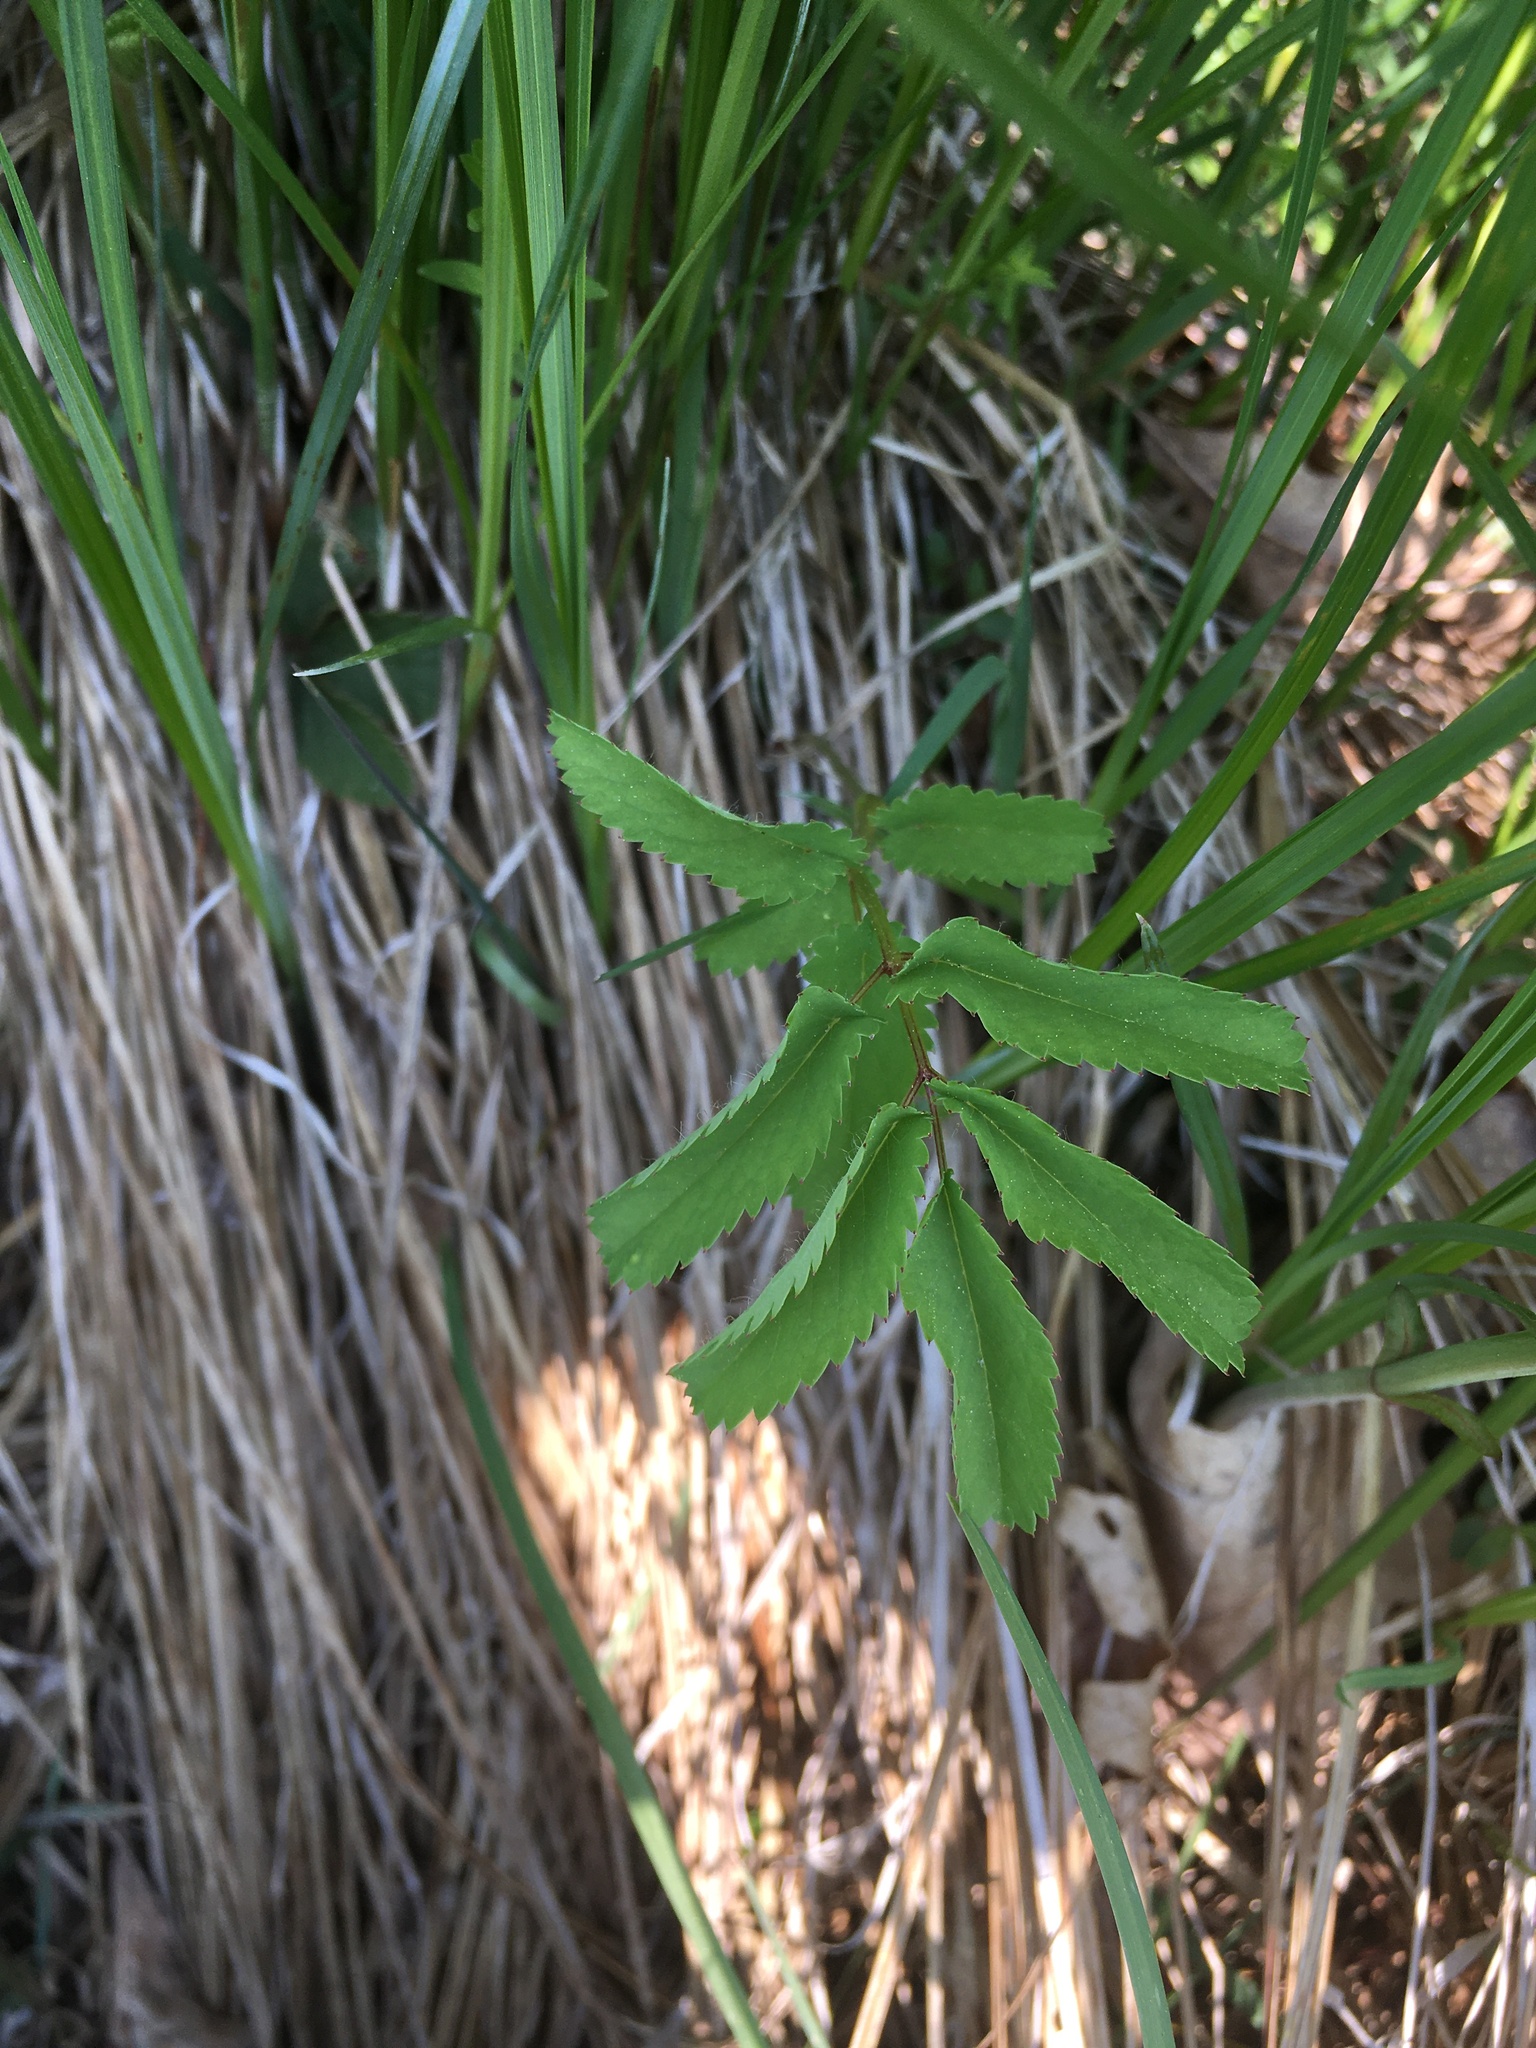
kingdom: Plantae
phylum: Tracheophyta
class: Magnoliopsida
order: Rosales
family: Rosaceae
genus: Sanguisorba
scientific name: Sanguisorba canadensis
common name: White burnet
